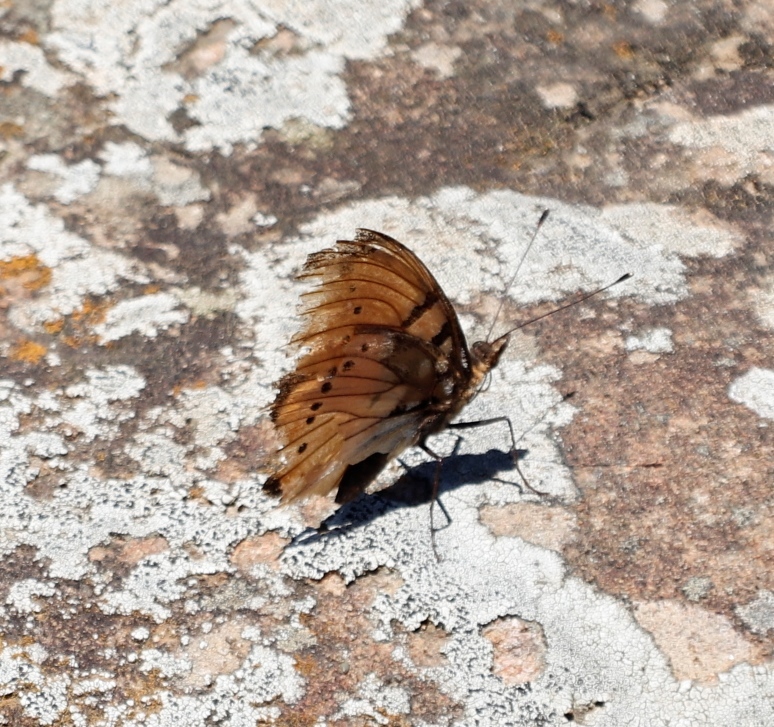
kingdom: Animalia
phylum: Arthropoda
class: Insecta
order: Lepidoptera
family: Nymphalidae
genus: Precis
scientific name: Precis octavia
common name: Gaudy commodore
